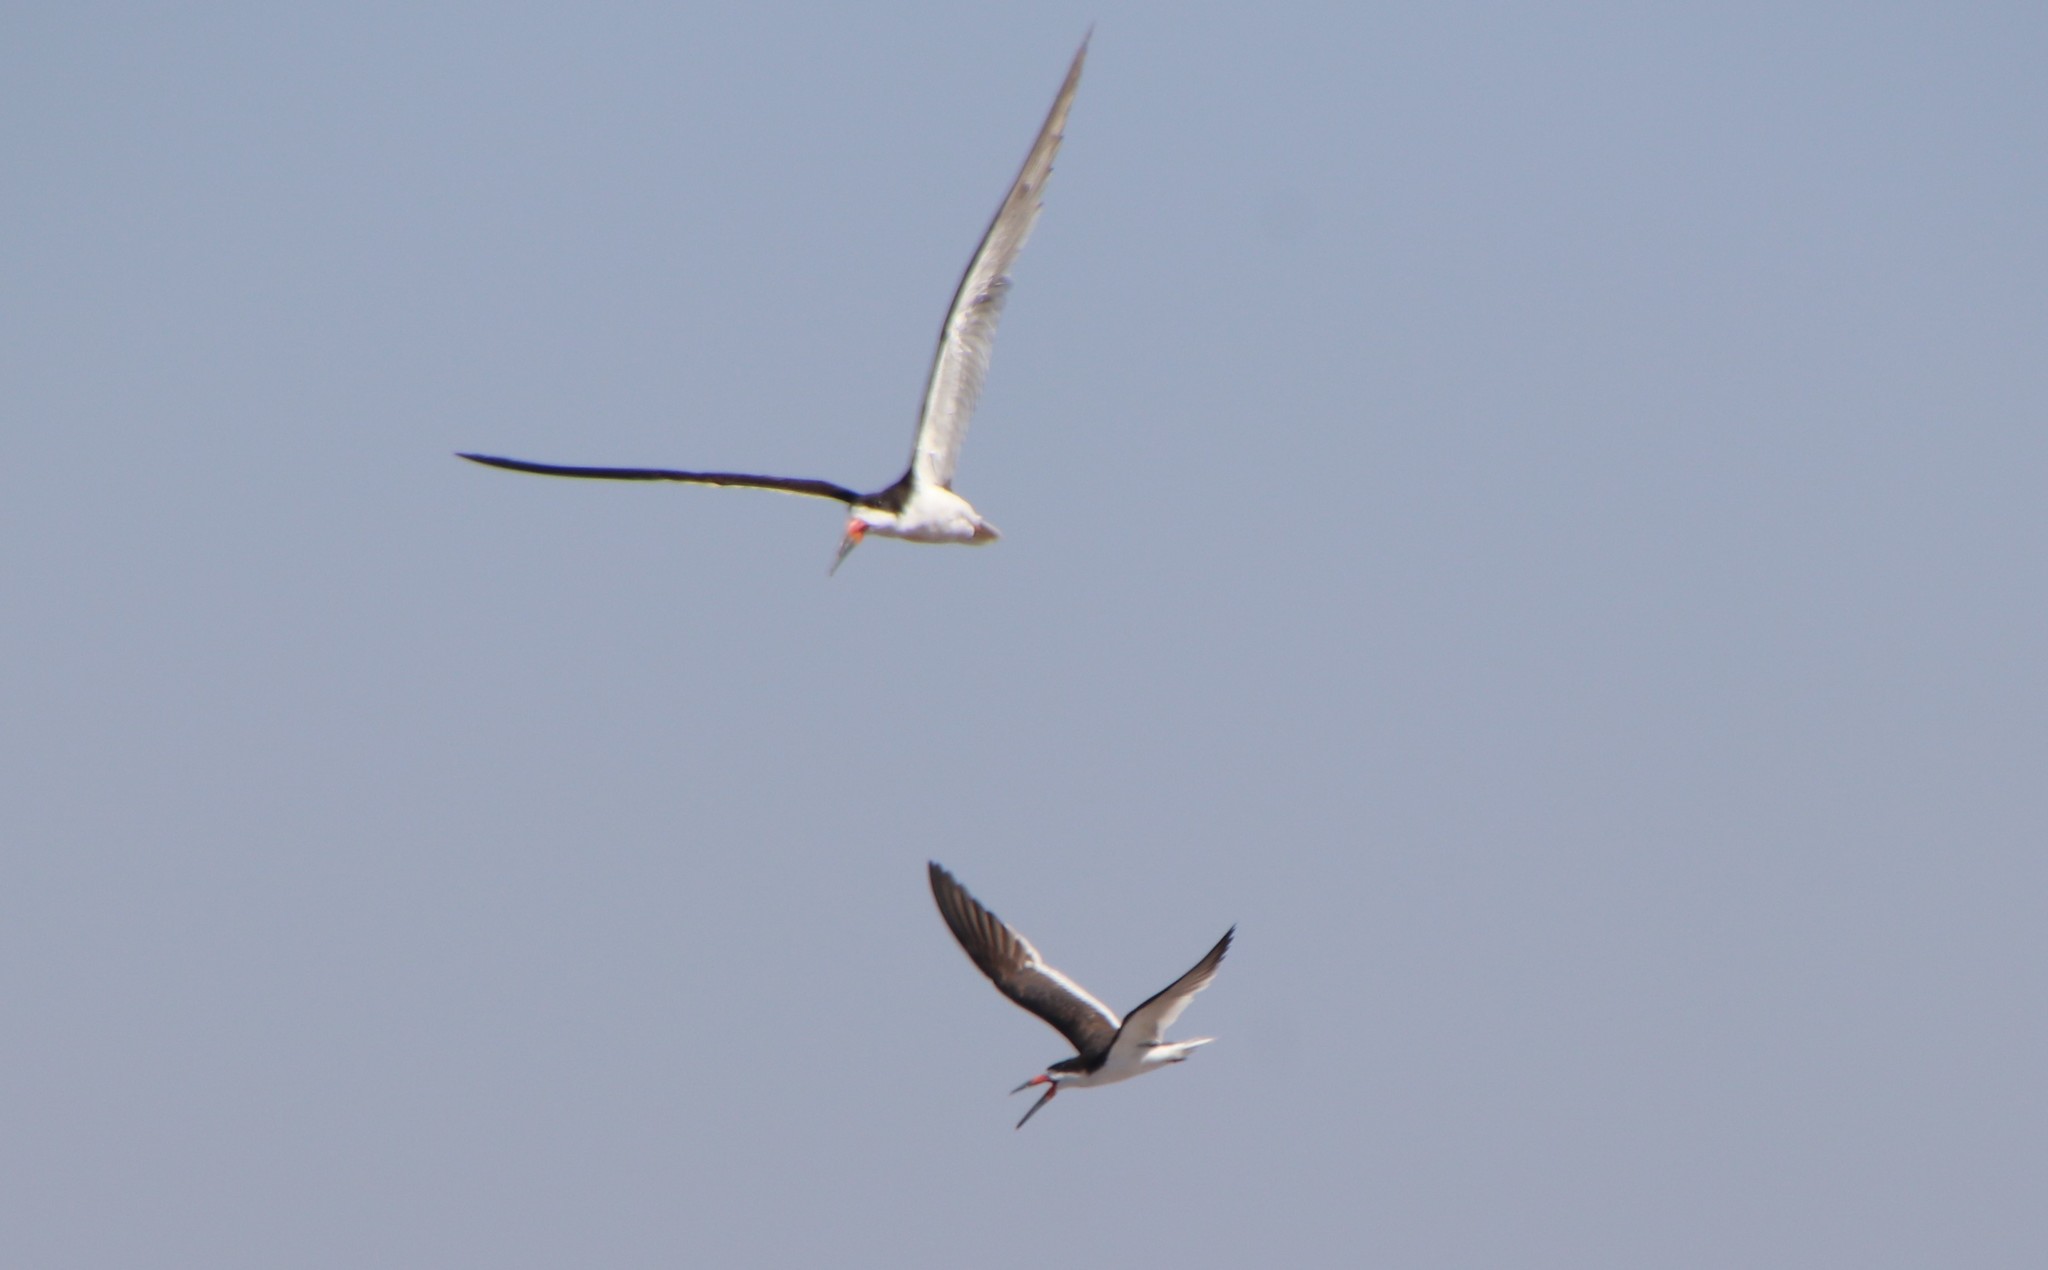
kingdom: Animalia
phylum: Chordata
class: Aves
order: Charadriiformes
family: Laridae
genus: Rynchops
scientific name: Rynchops niger
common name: Black skimmer
